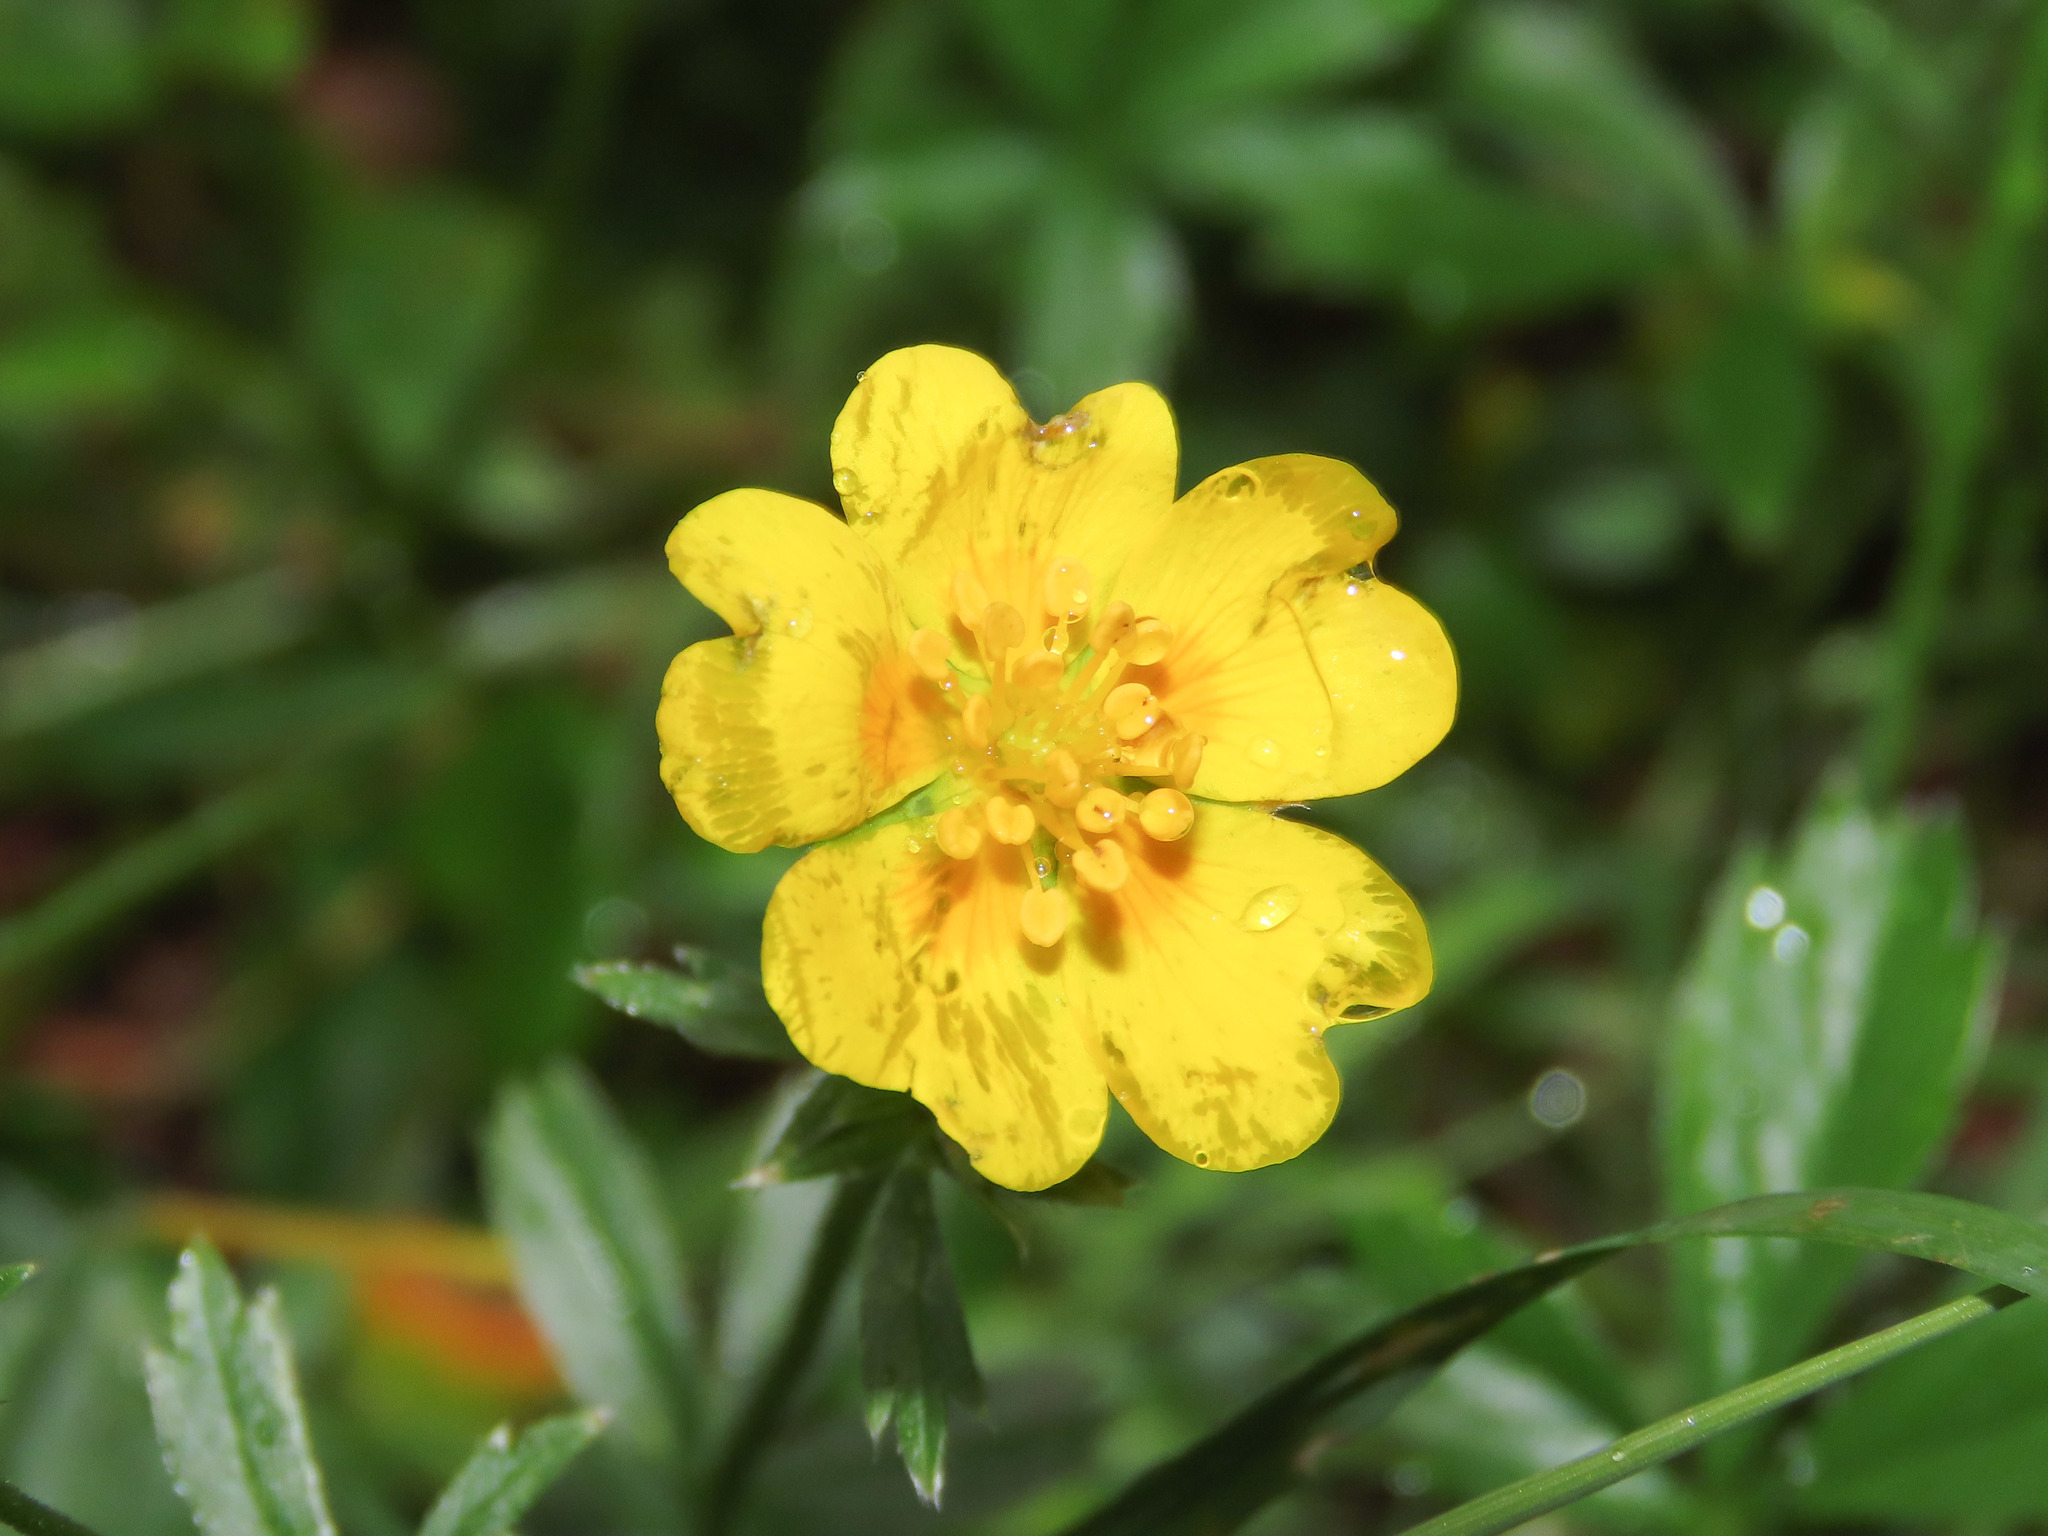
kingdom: Plantae
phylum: Tracheophyta
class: Magnoliopsida
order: Rosales
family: Rosaceae
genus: Potentilla
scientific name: Potentilla aurea
